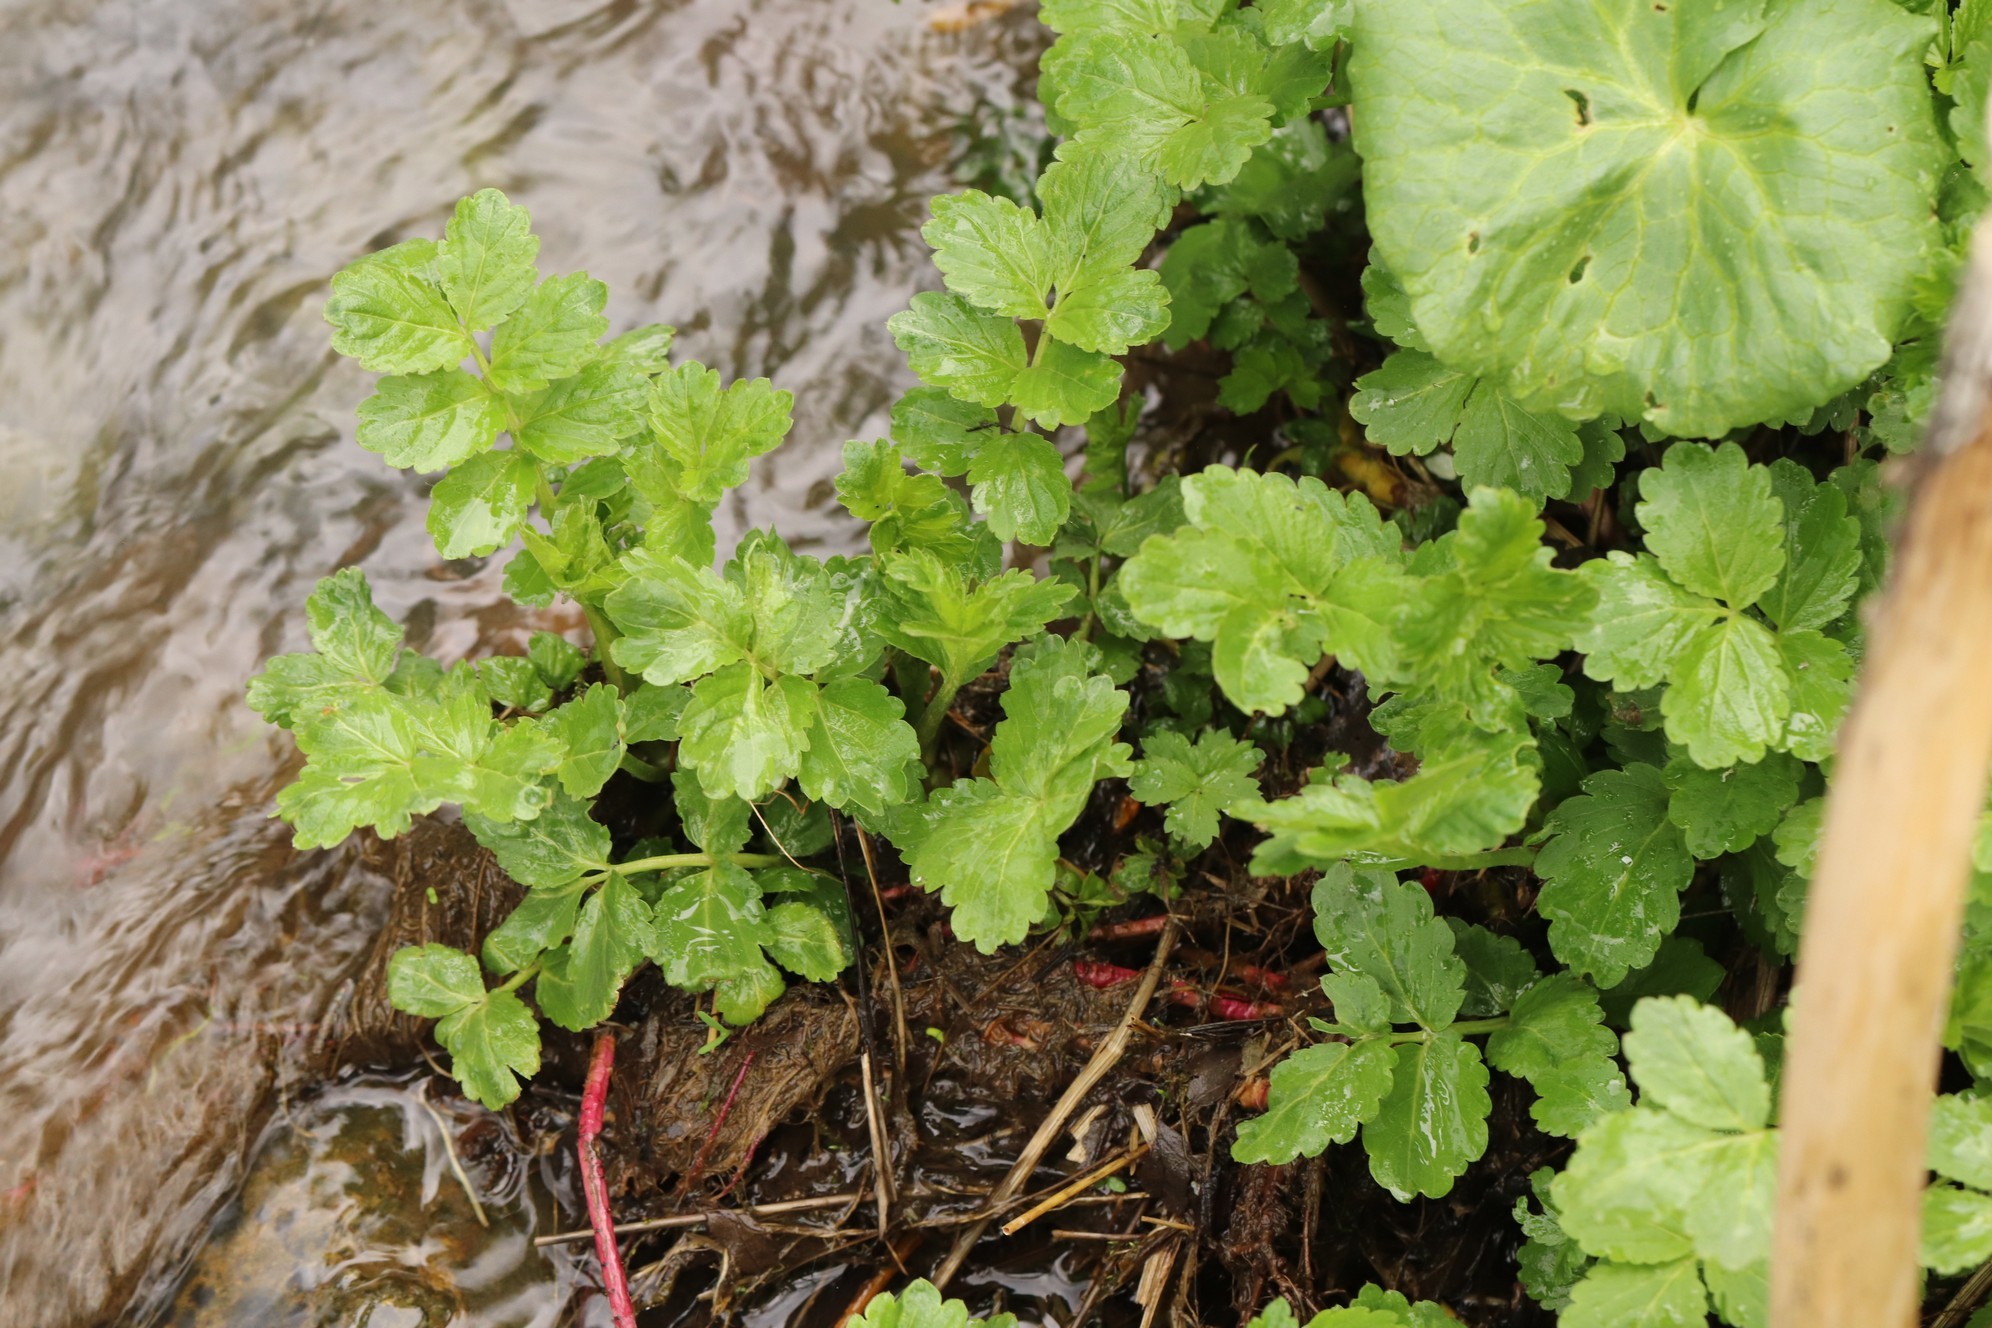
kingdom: Plantae
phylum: Tracheophyta
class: Magnoliopsida
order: Brassicales
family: Brassicaceae
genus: Cardamine
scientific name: Cardamine macrophylla
